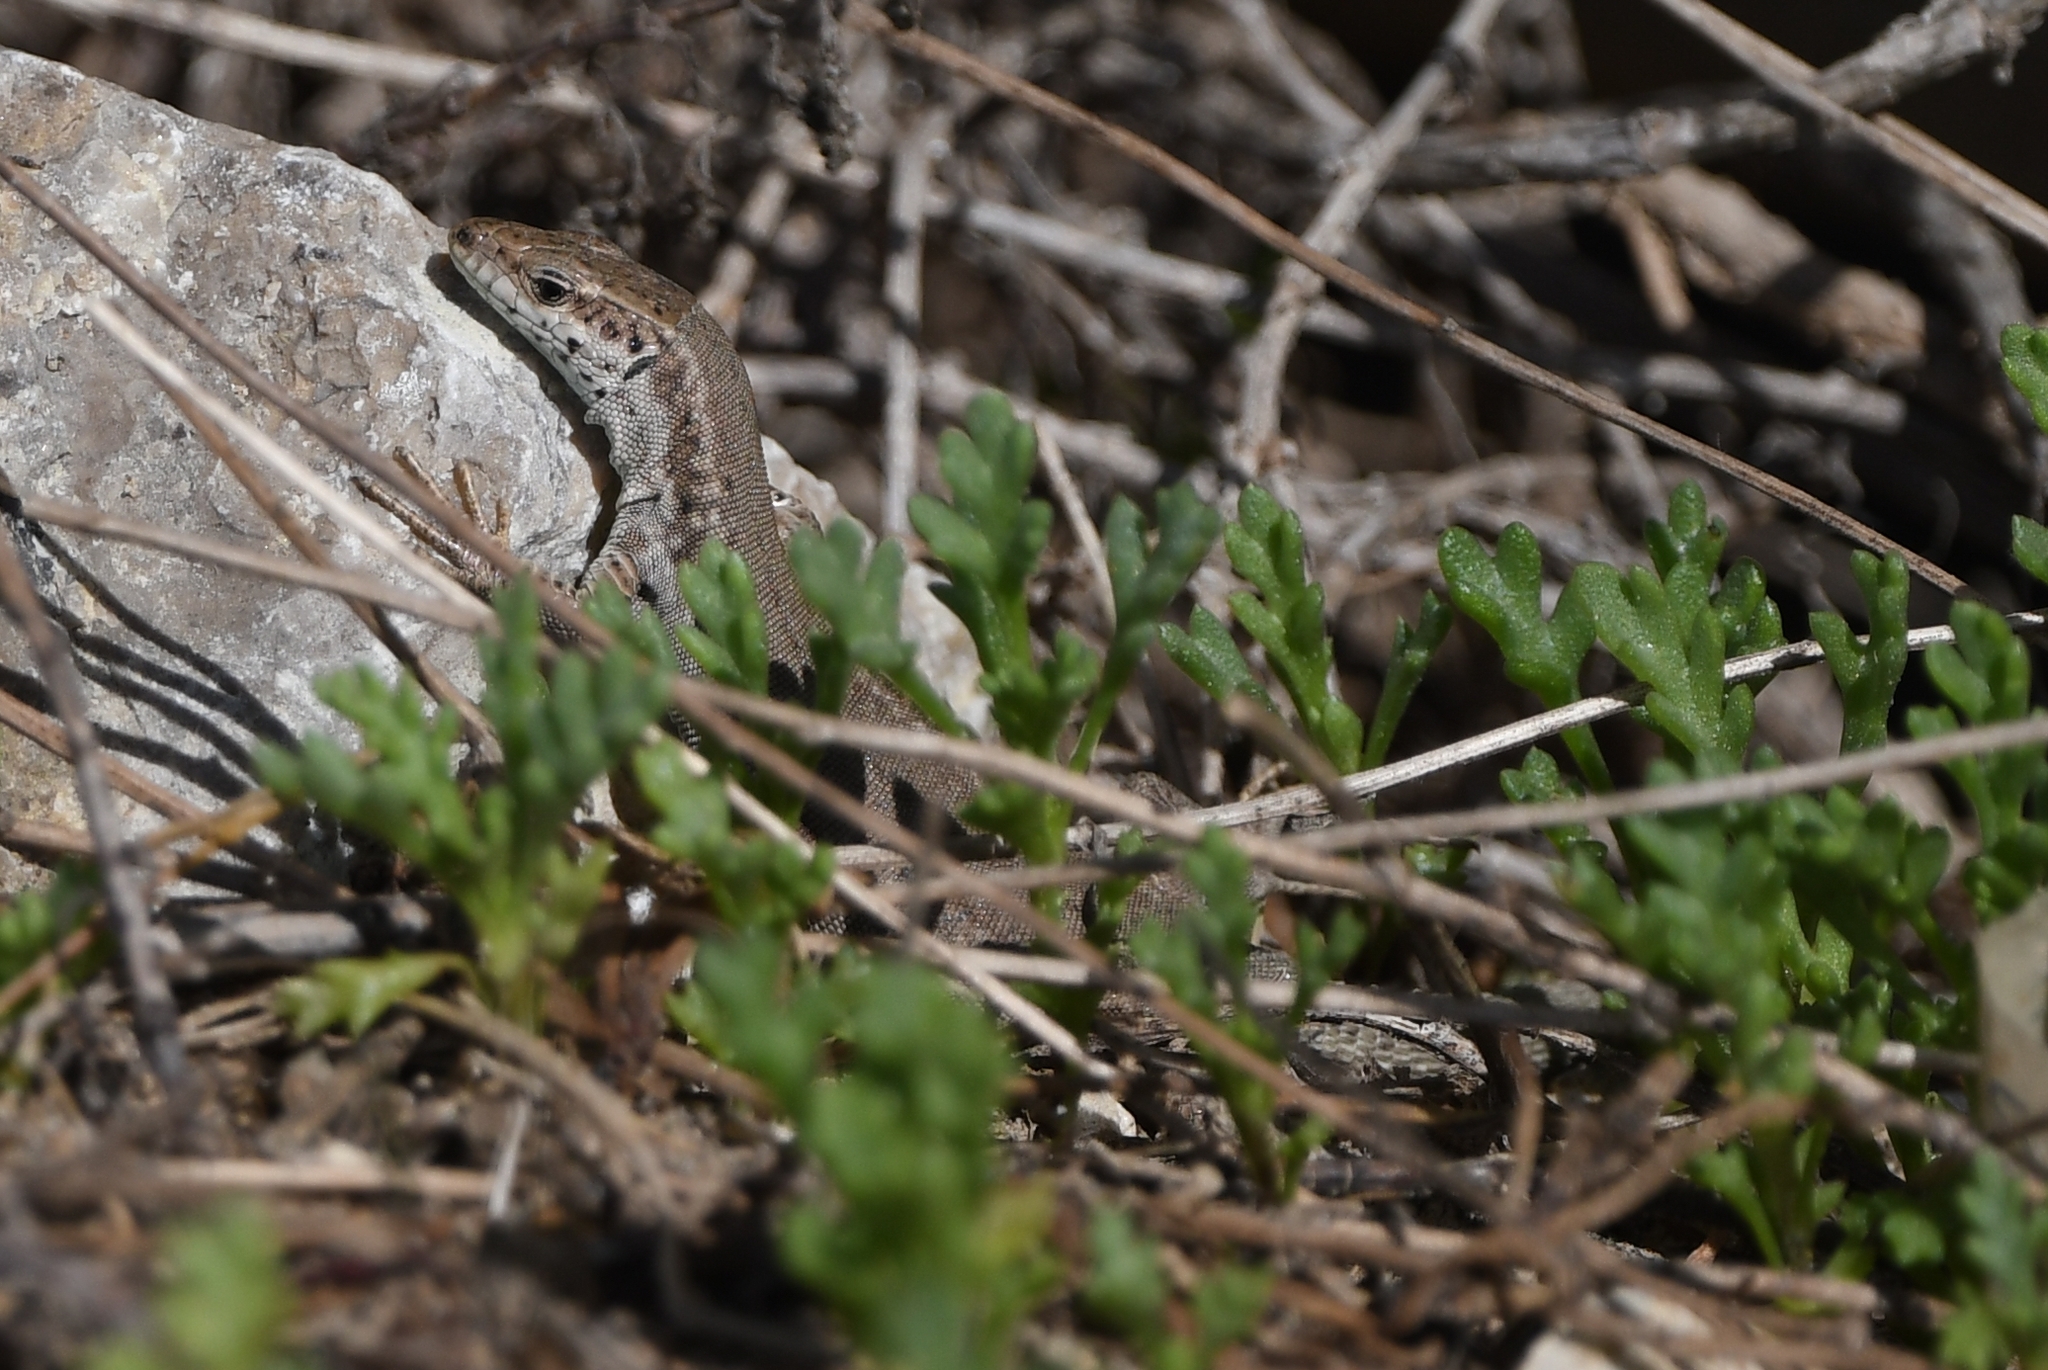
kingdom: Animalia
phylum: Chordata
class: Squamata
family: Lacertidae
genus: Podarcis
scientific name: Podarcis liolepis
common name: Catalonian wall lizard
